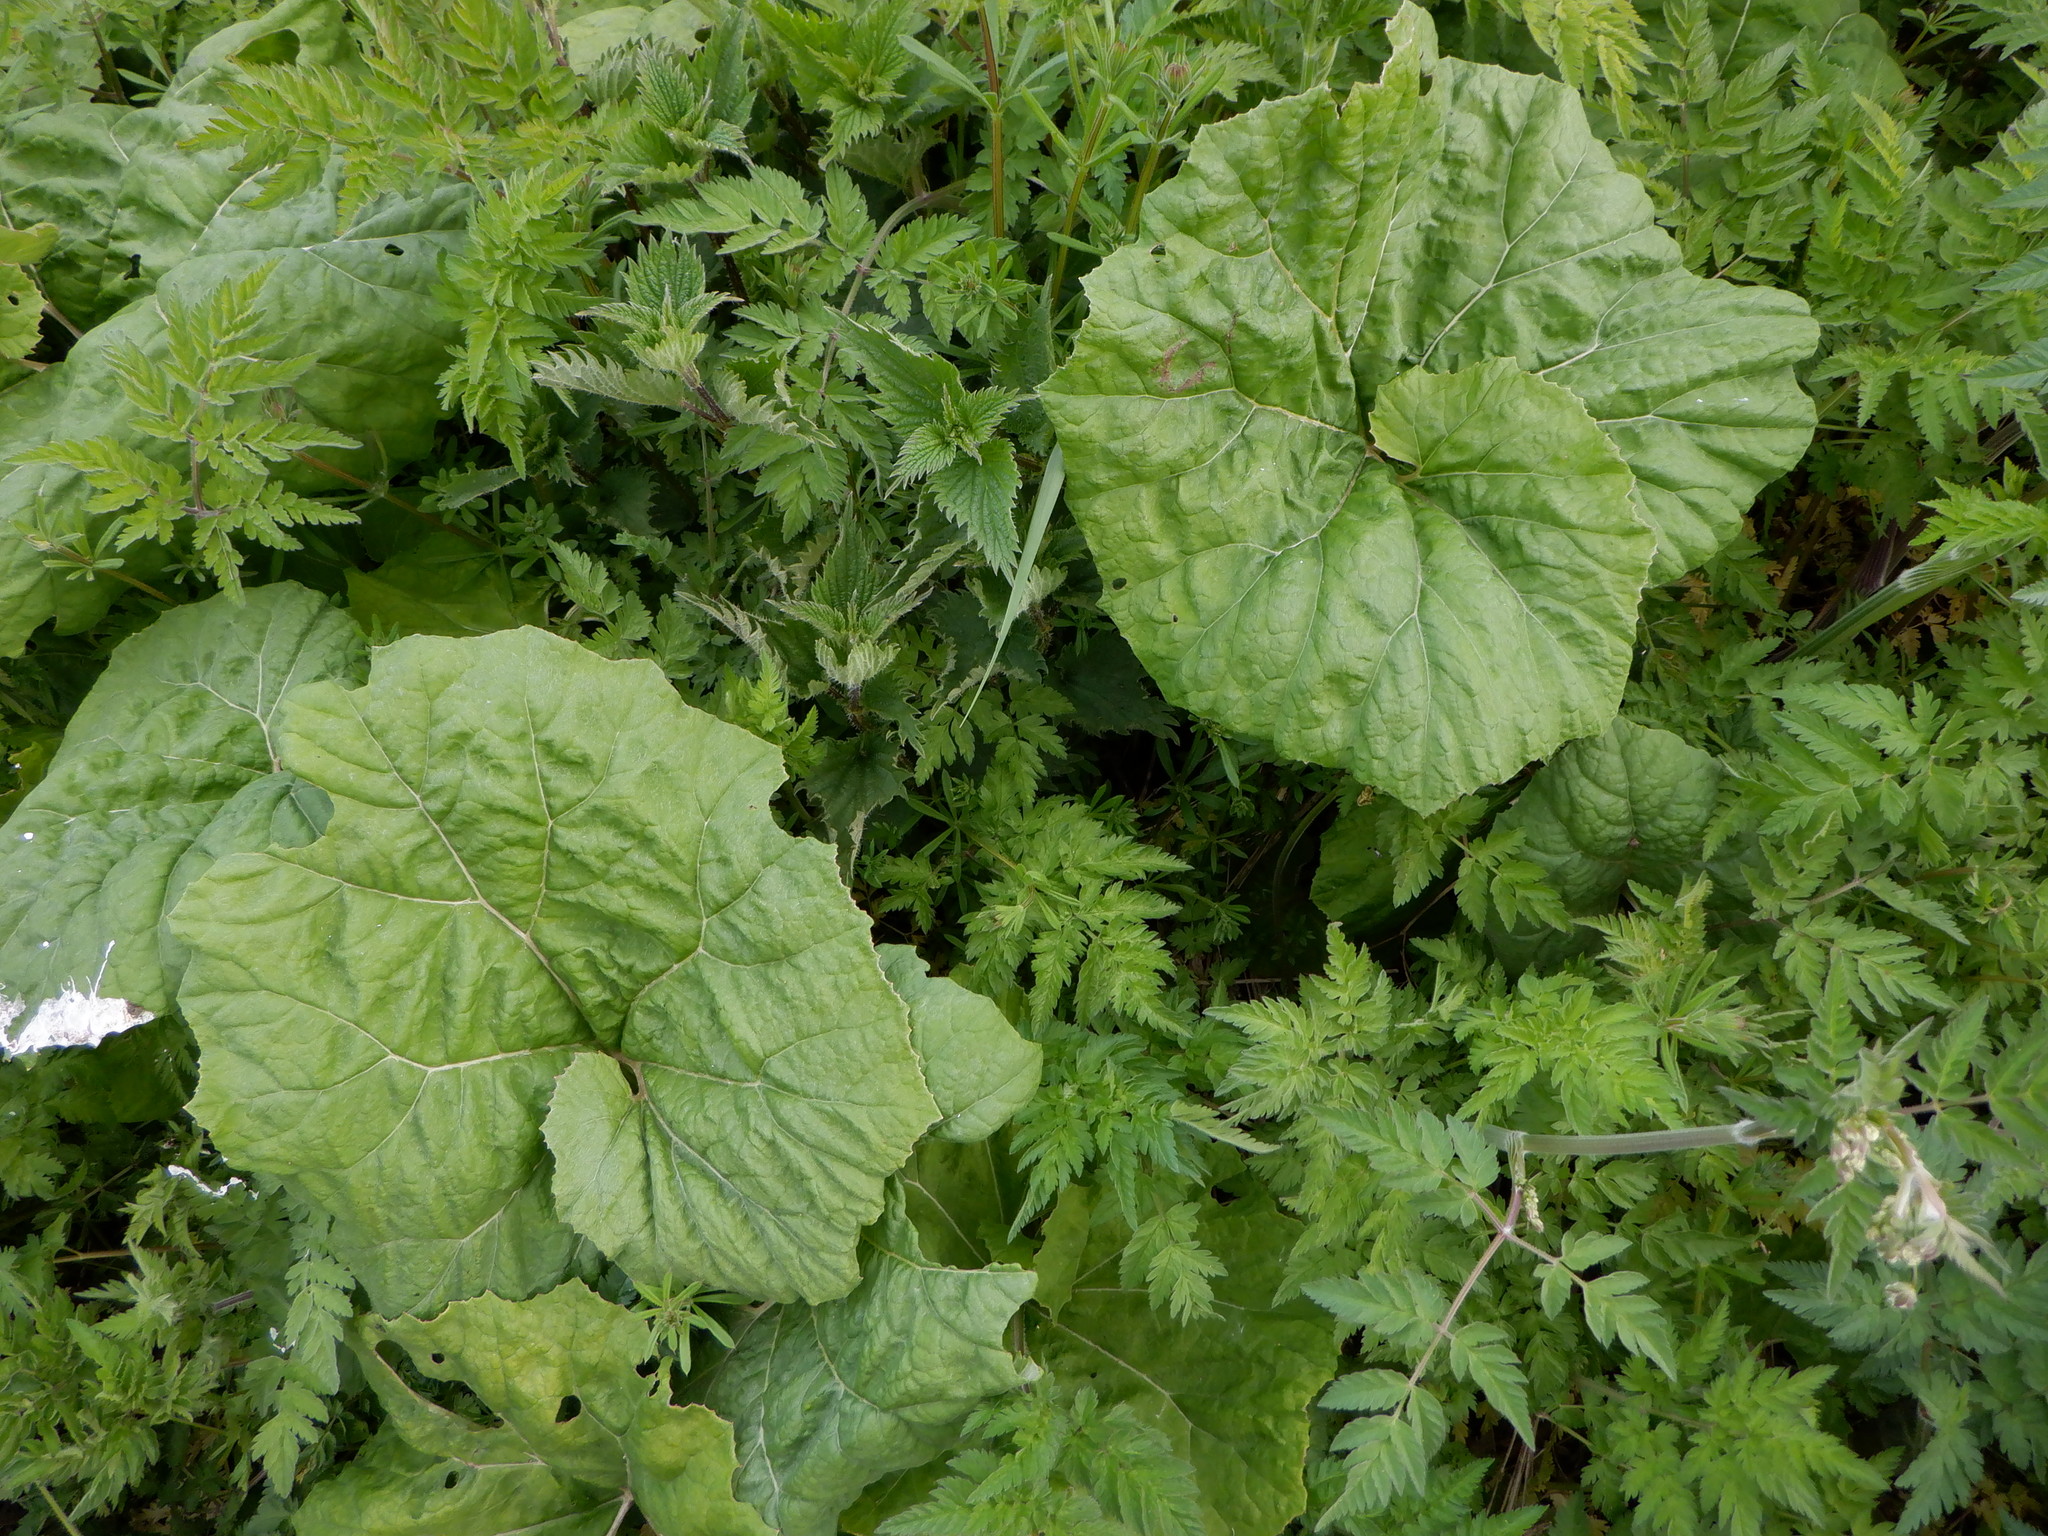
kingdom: Plantae
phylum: Tracheophyta
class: Magnoliopsida
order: Asterales
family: Asteraceae
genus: Petasites
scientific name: Petasites hybridus
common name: Butterbur
